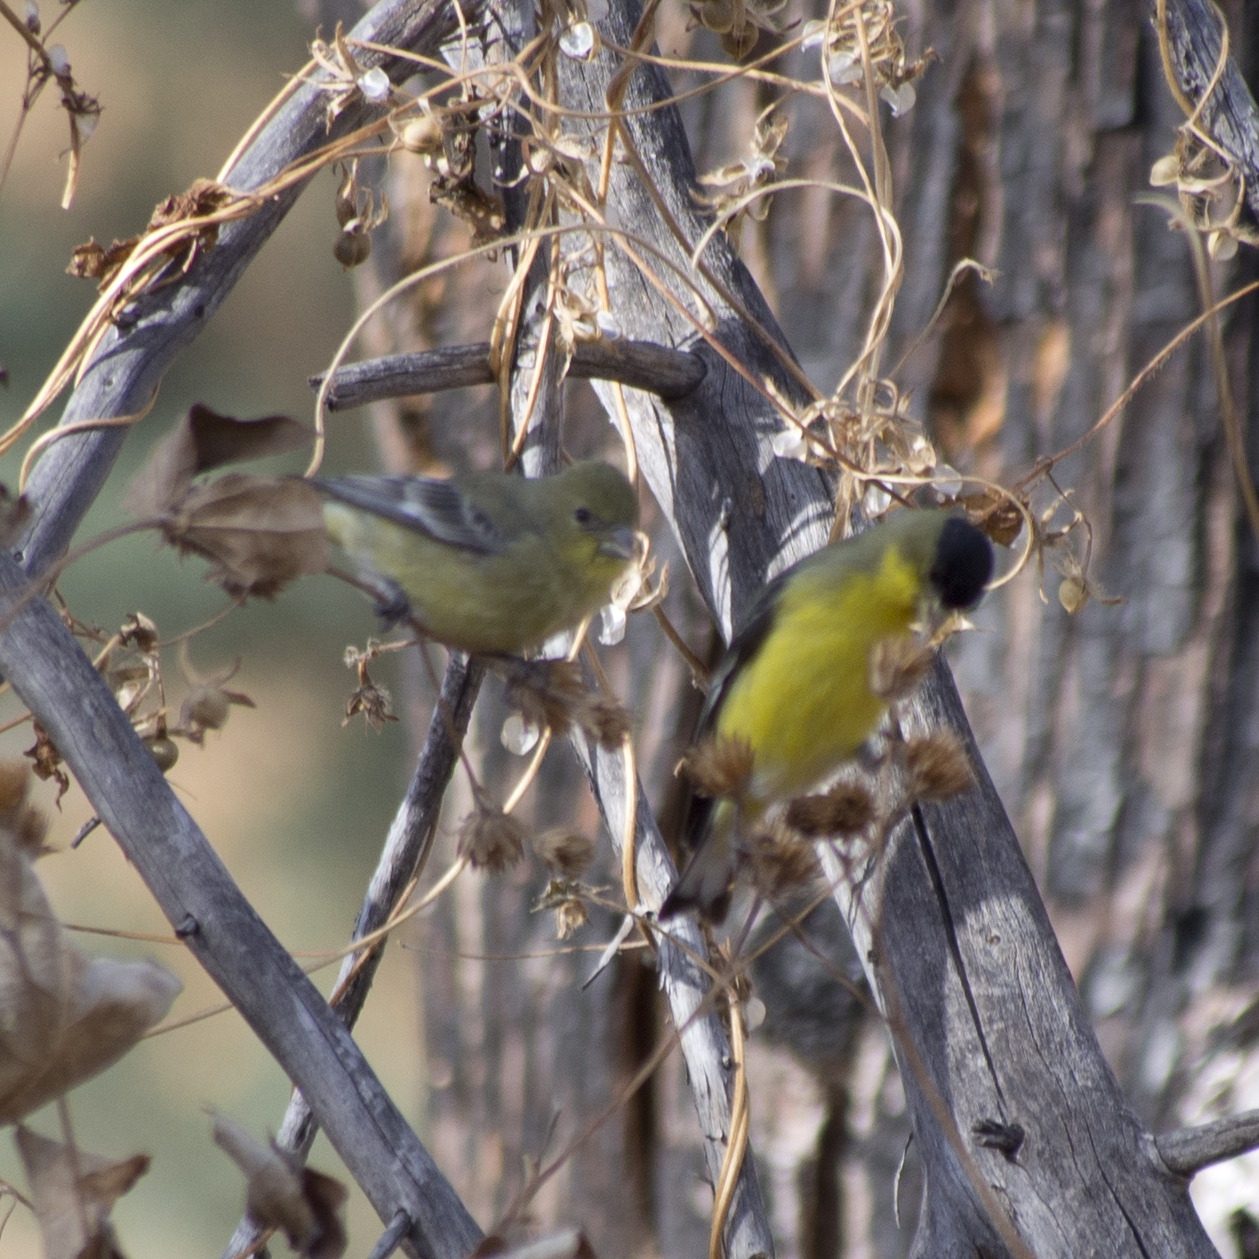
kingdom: Animalia
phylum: Chordata
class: Aves
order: Passeriformes
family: Fringillidae
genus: Spinus
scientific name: Spinus psaltria
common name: Lesser goldfinch
